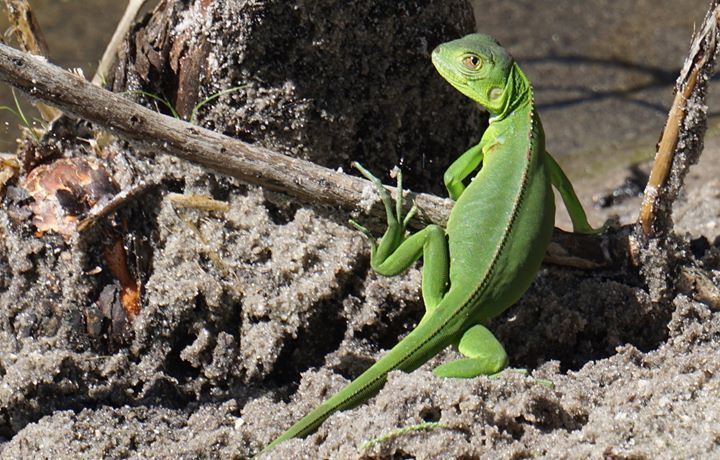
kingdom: Animalia
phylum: Chordata
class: Squamata
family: Iguanidae
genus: Iguana
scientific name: Iguana iguana
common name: Green iguana
